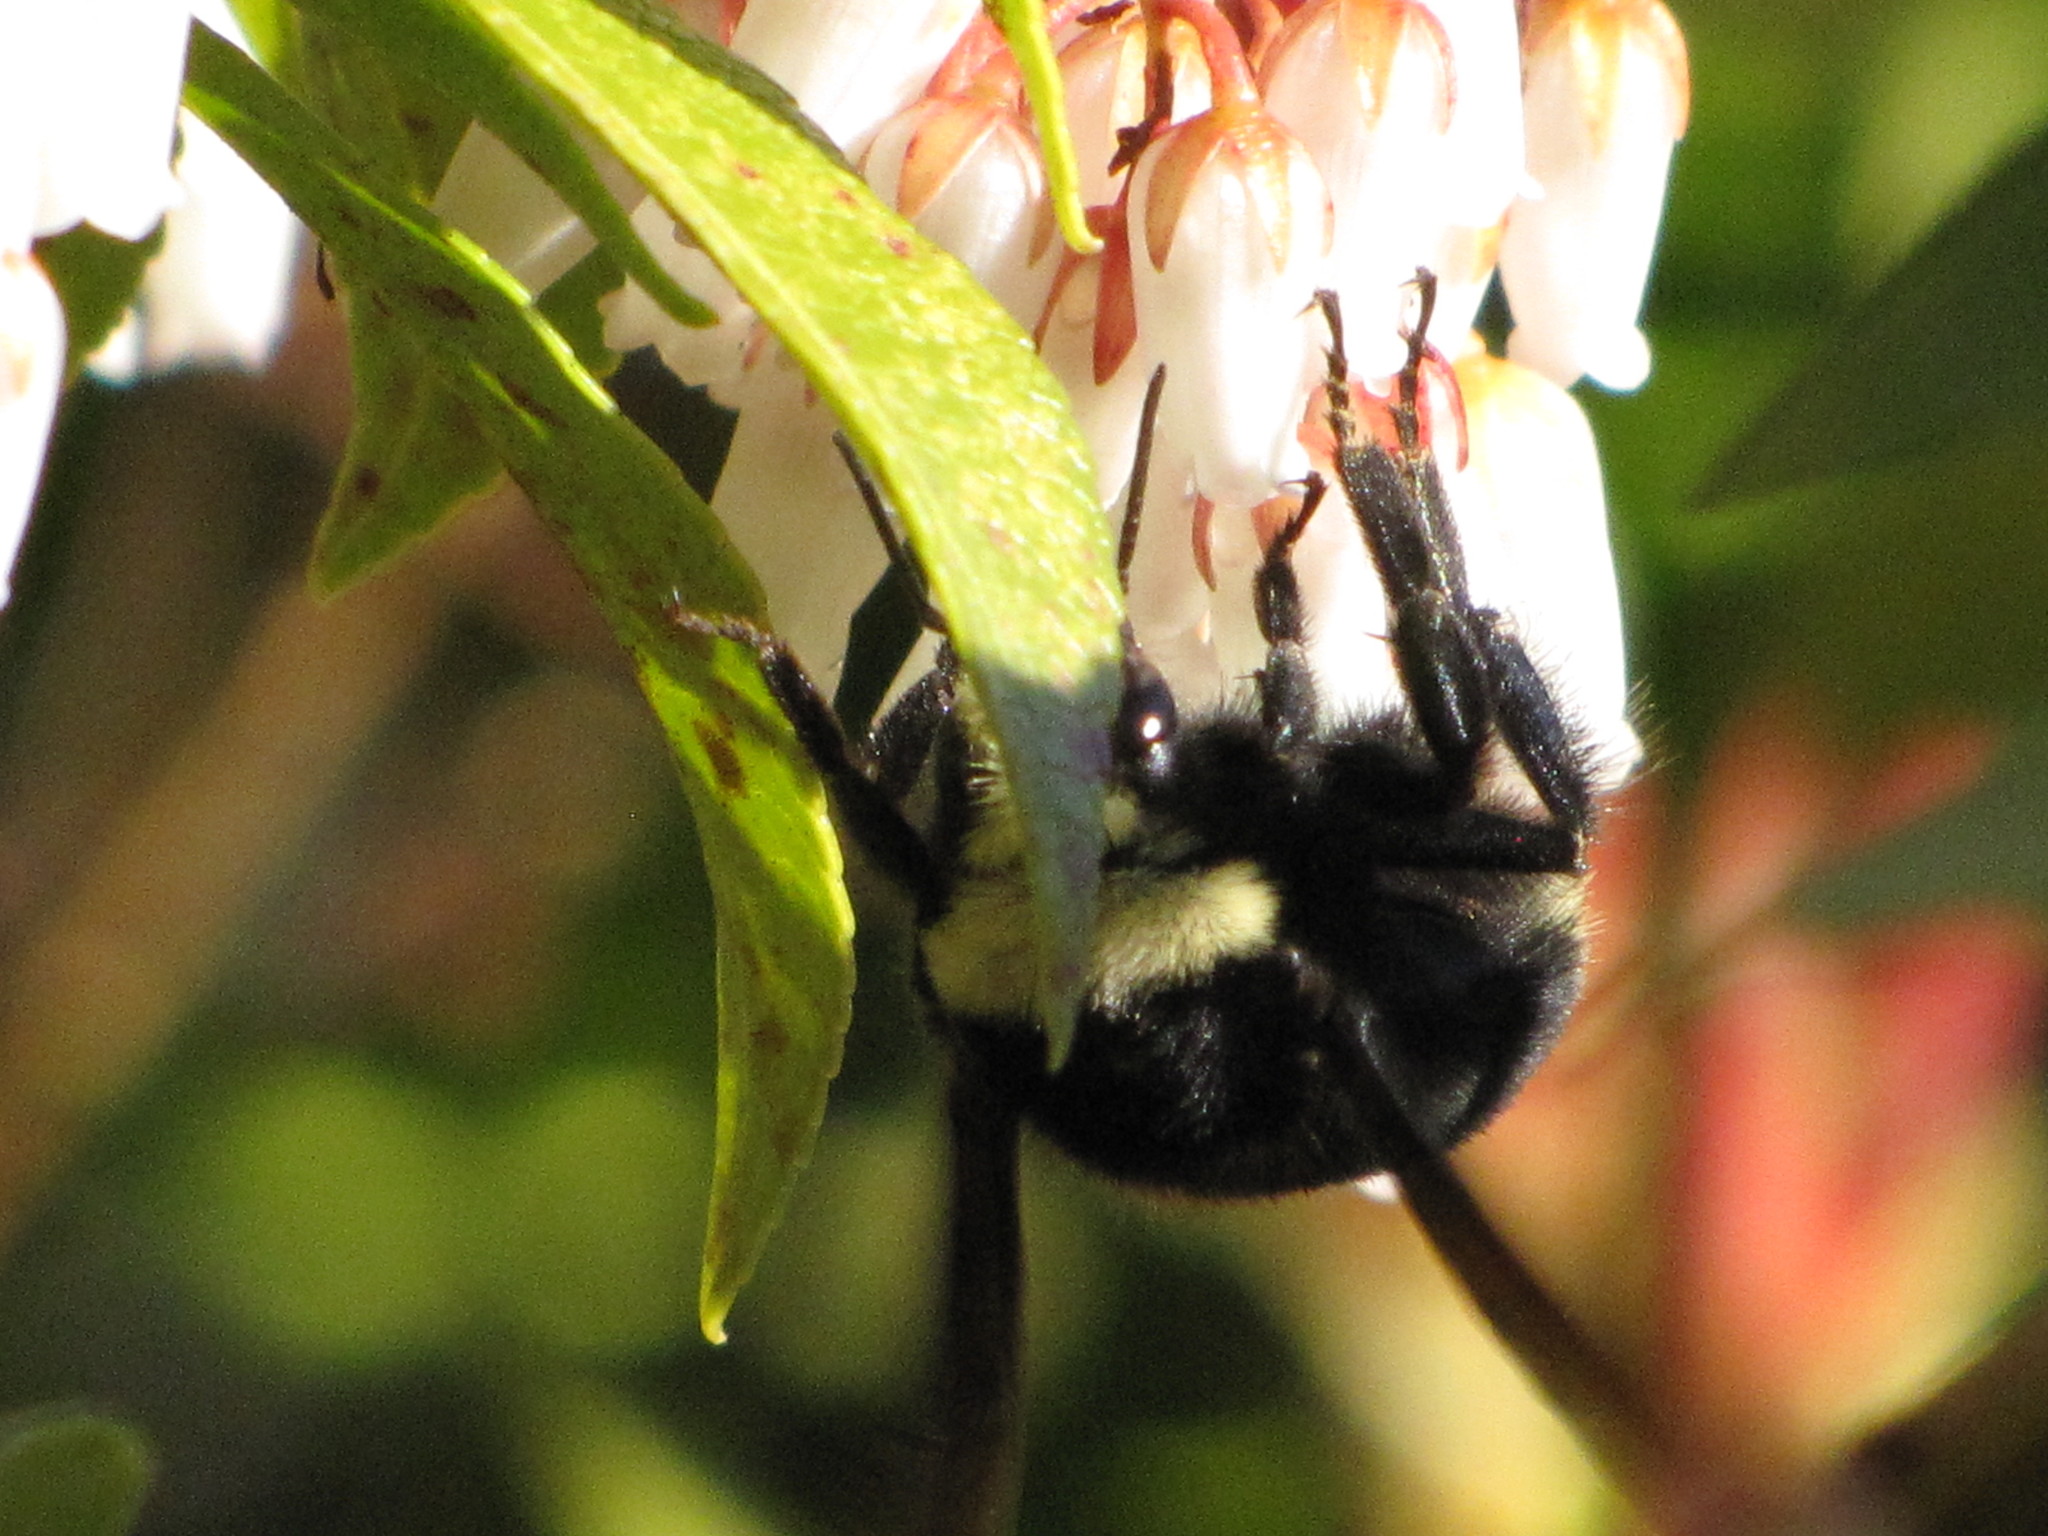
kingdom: Animalia
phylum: Arthropoda
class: Insecta
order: Hymenoptera
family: Apidae
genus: Bombus
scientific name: Bombus vosnesenskii
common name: Vosnesensky bumble bee
